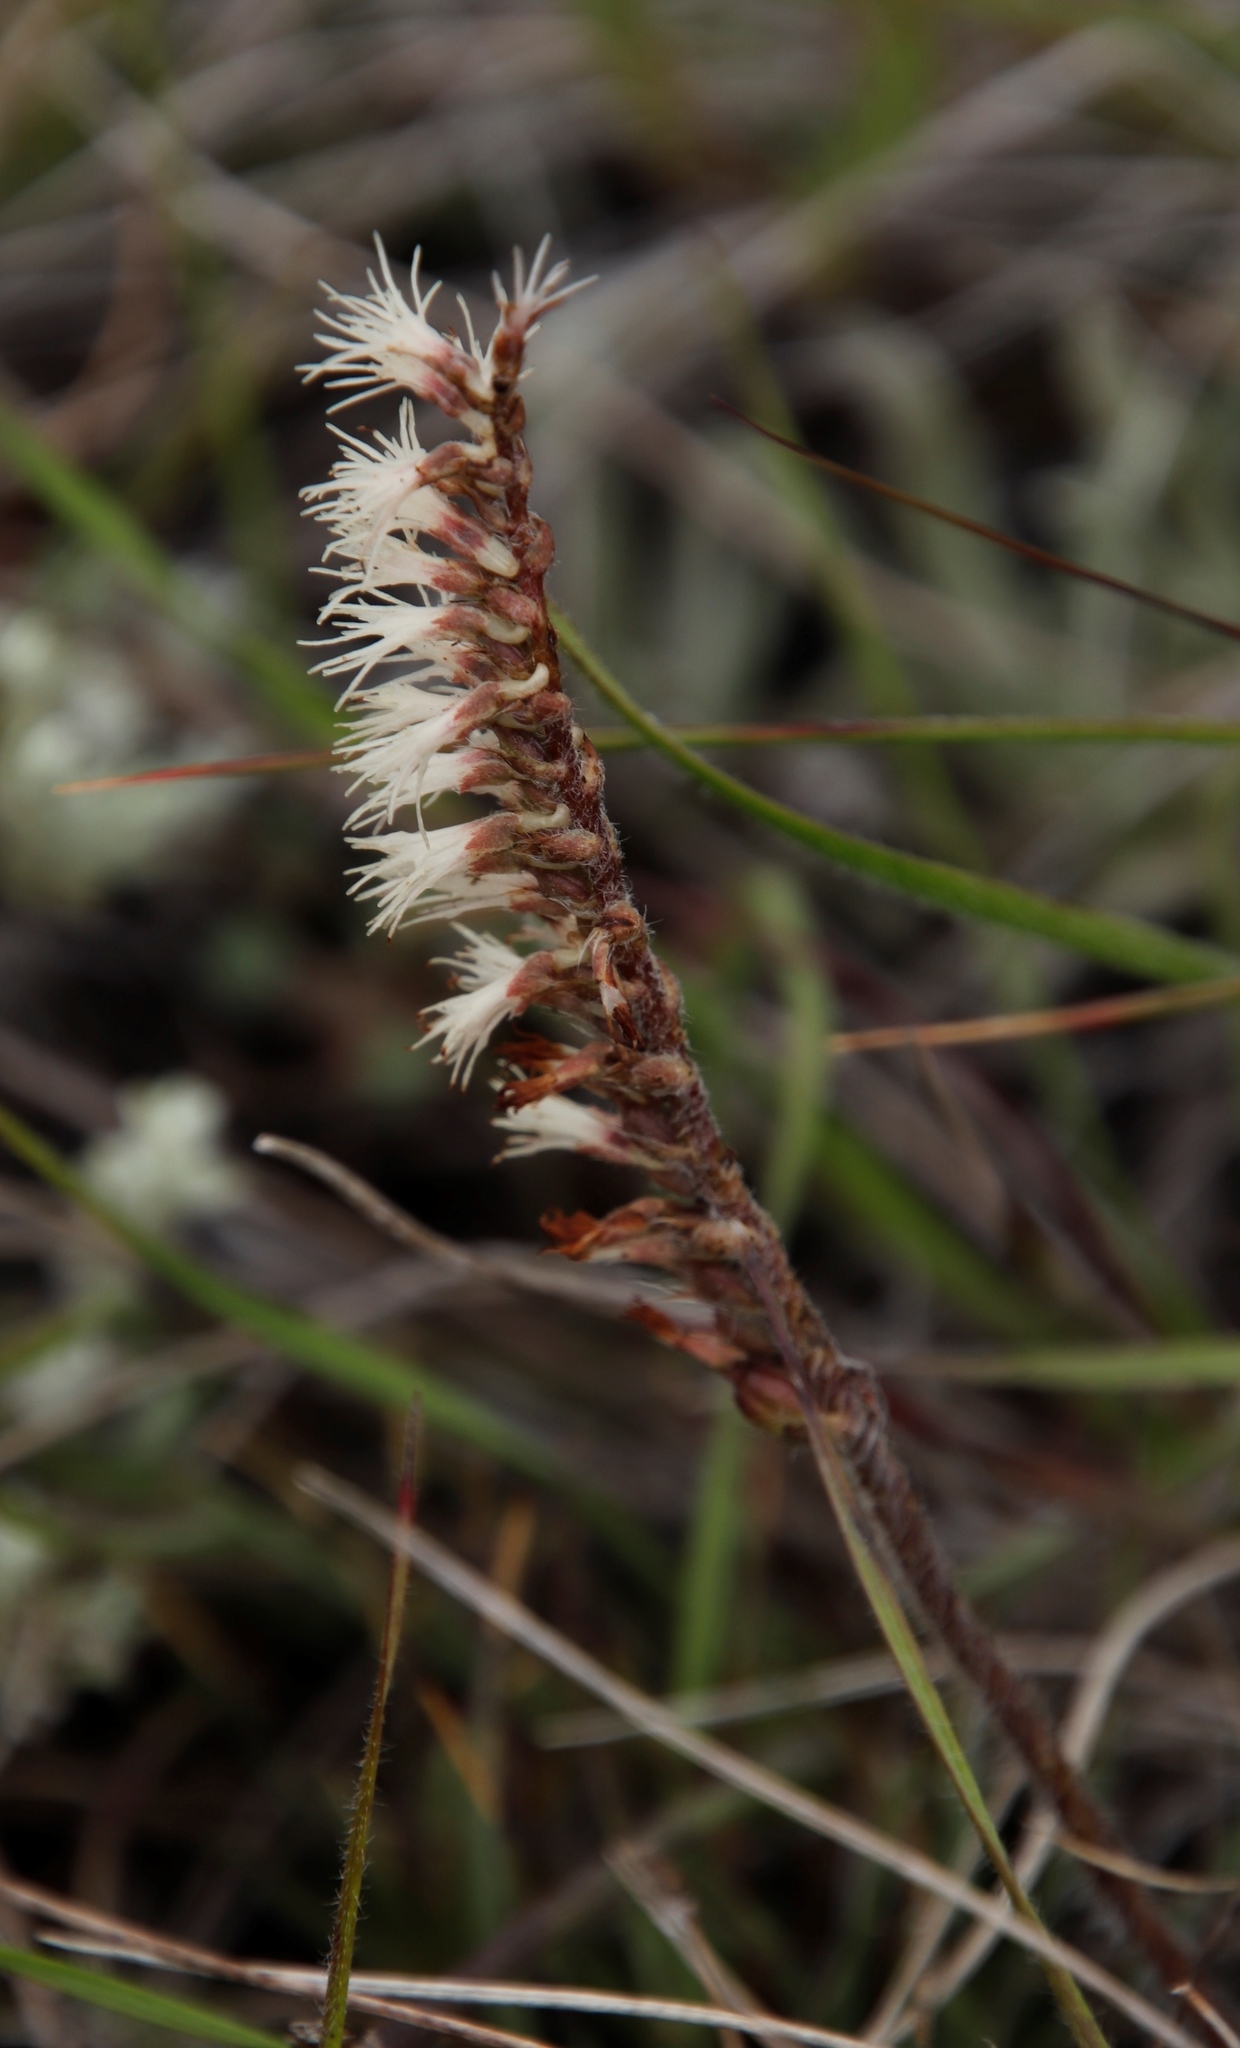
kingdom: Plantae
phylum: Tracheophyta
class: Liliopsida
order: Asparagales
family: Orchidaceae
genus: Holothrix
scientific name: Holothrix scopularia
